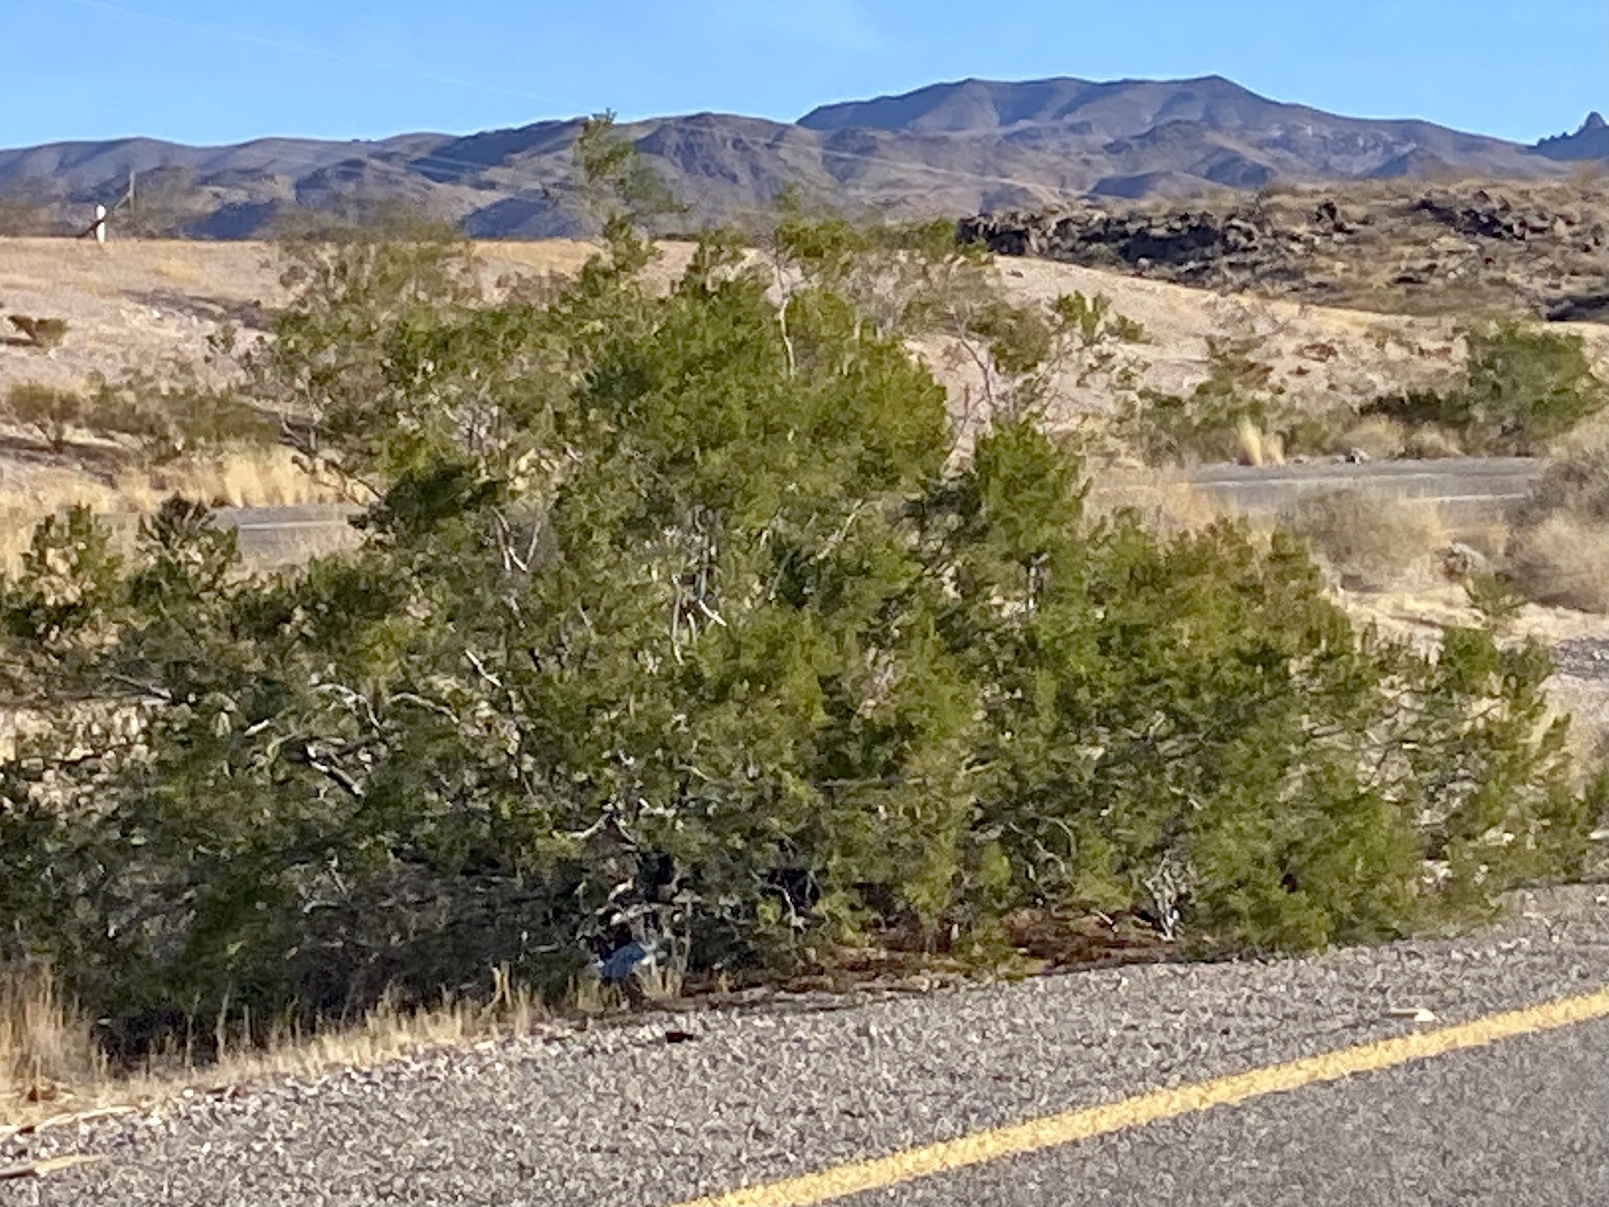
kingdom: Plantae
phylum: Tracheophyta
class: Magnoliopsida
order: Zygophyllales
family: Zygophyllaceae
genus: Larrea
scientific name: Larrea tridentata
